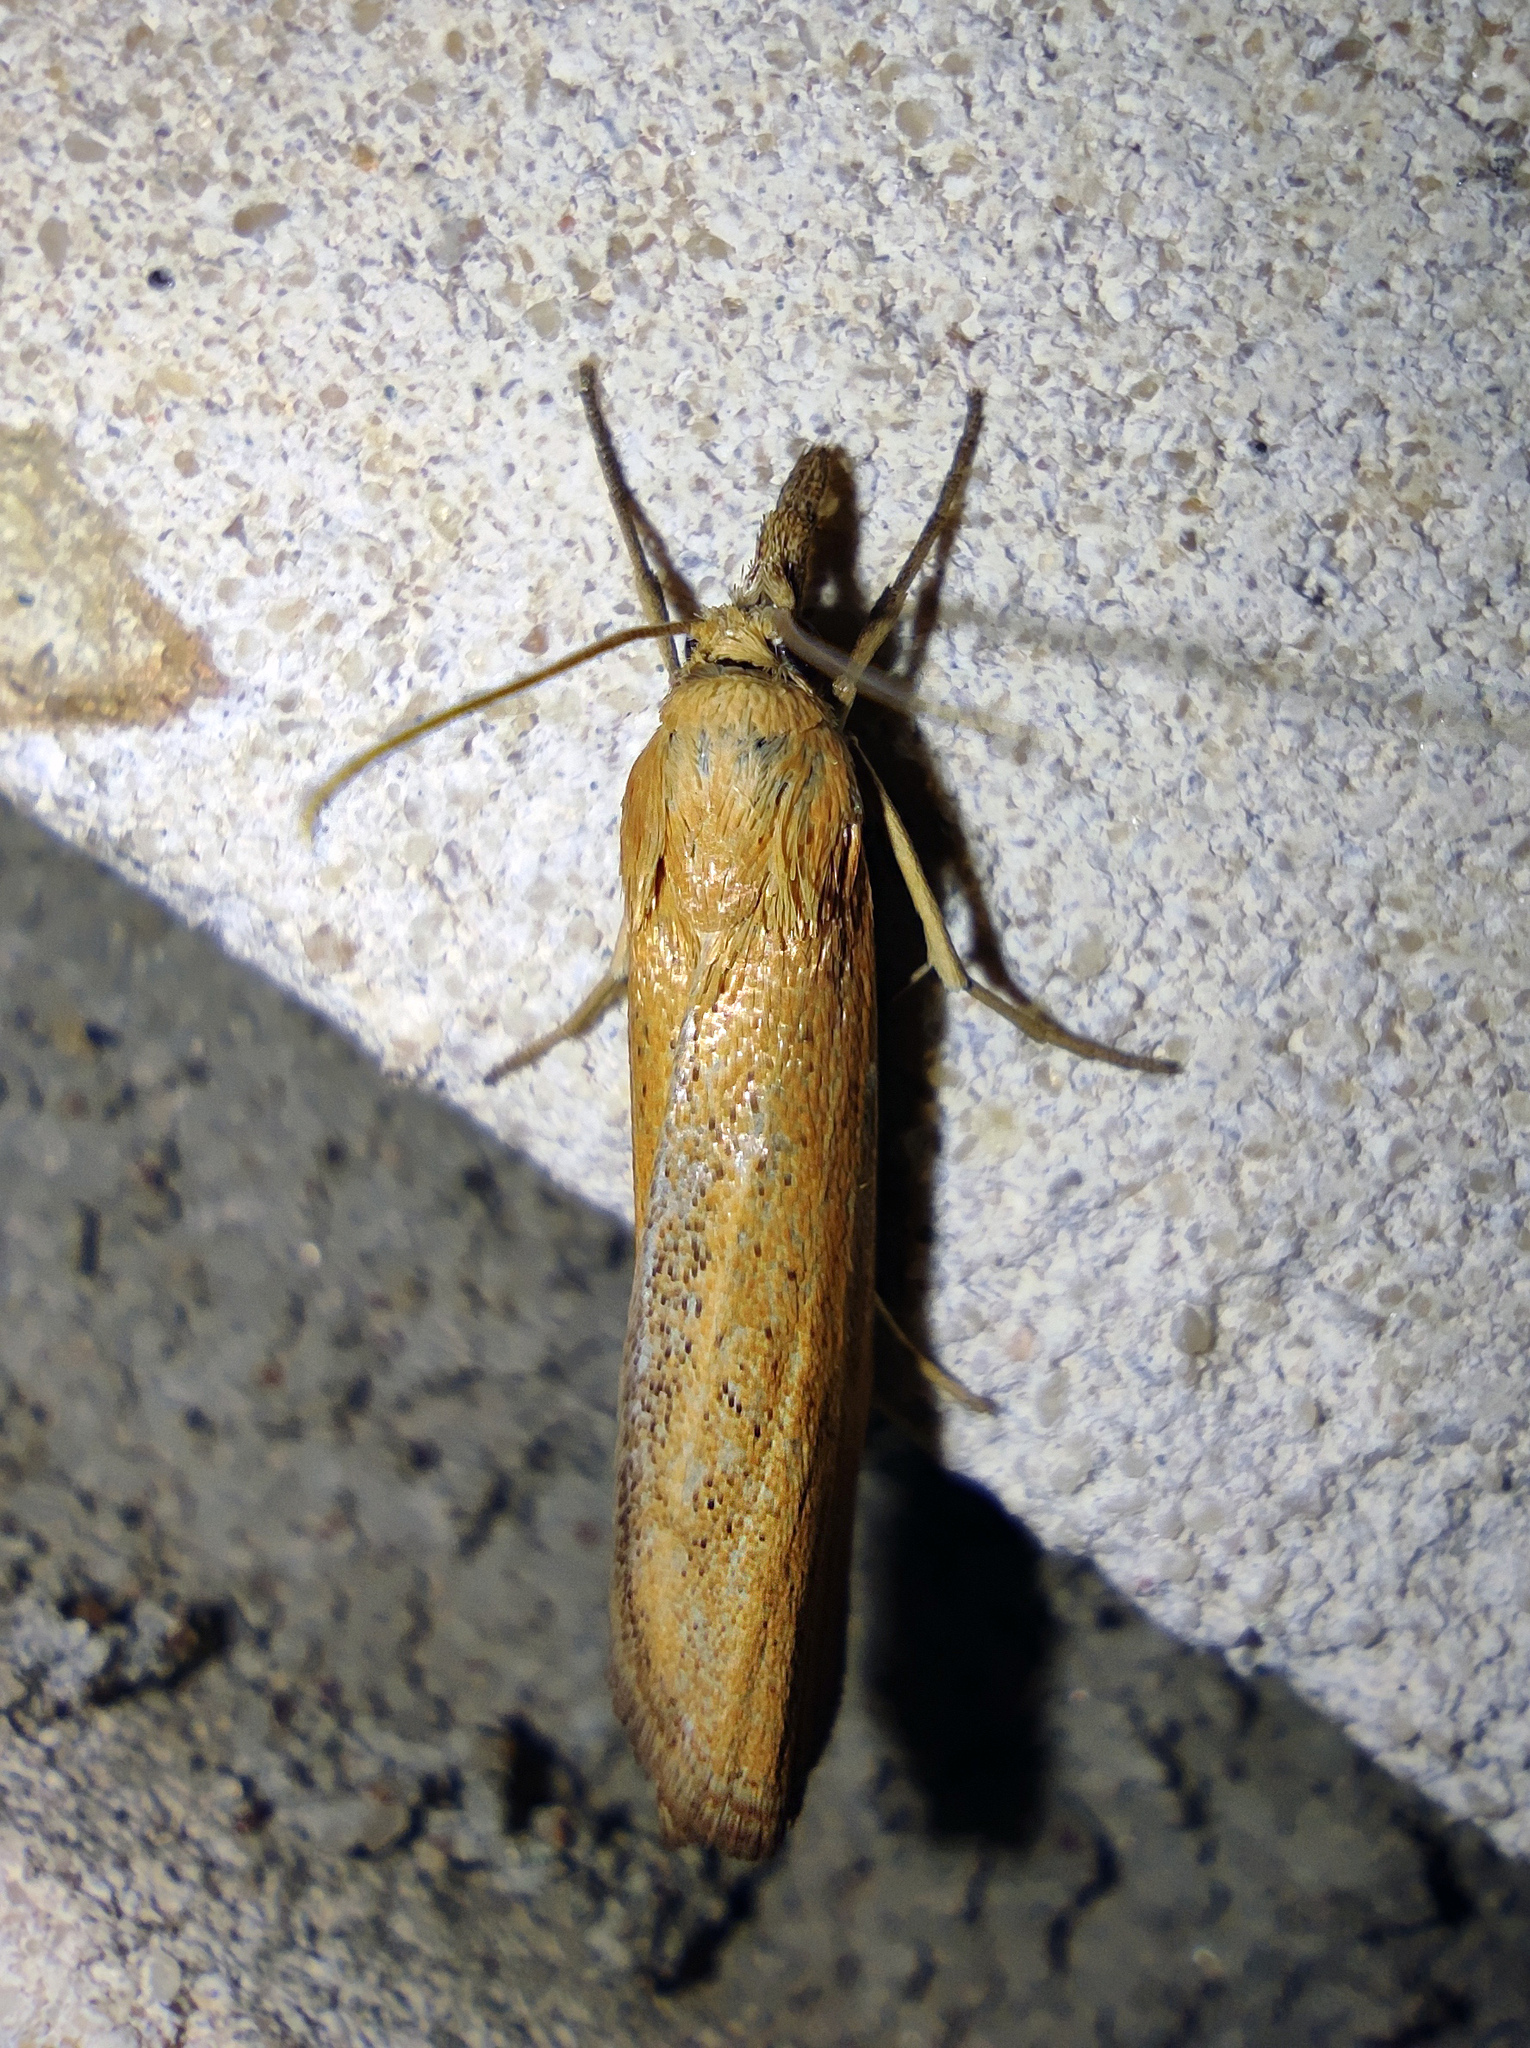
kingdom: Animalia
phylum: Arthropoda
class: Insecta
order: Lepidoptera
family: Crambidae
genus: Pediasia
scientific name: Pediasia luteella
